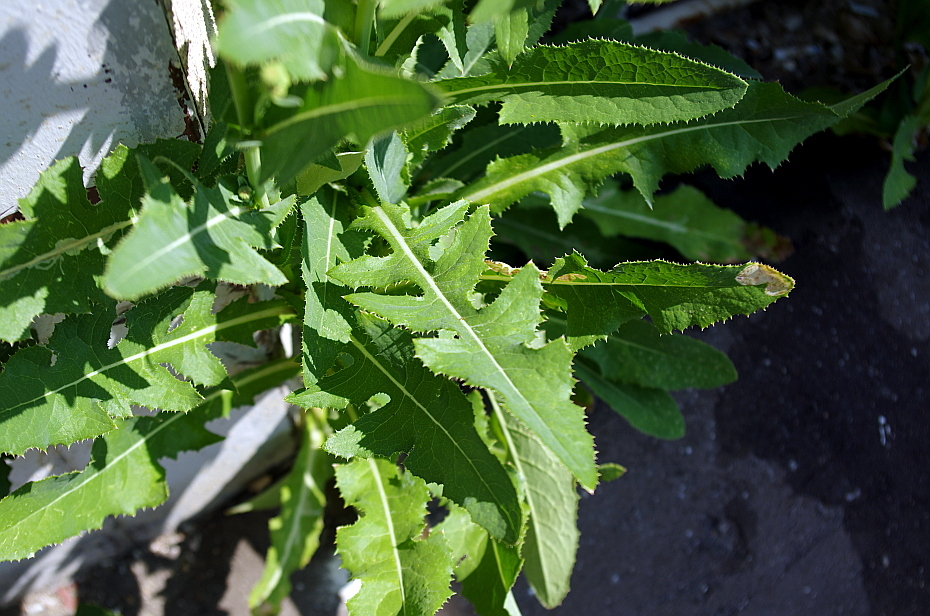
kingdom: Plantae
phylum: Tracheophyta
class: Magnoliopsida
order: Asterales
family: Asteraceae
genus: Sonchus
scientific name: Sonchus arvensis
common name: Perennial sow-thistle
